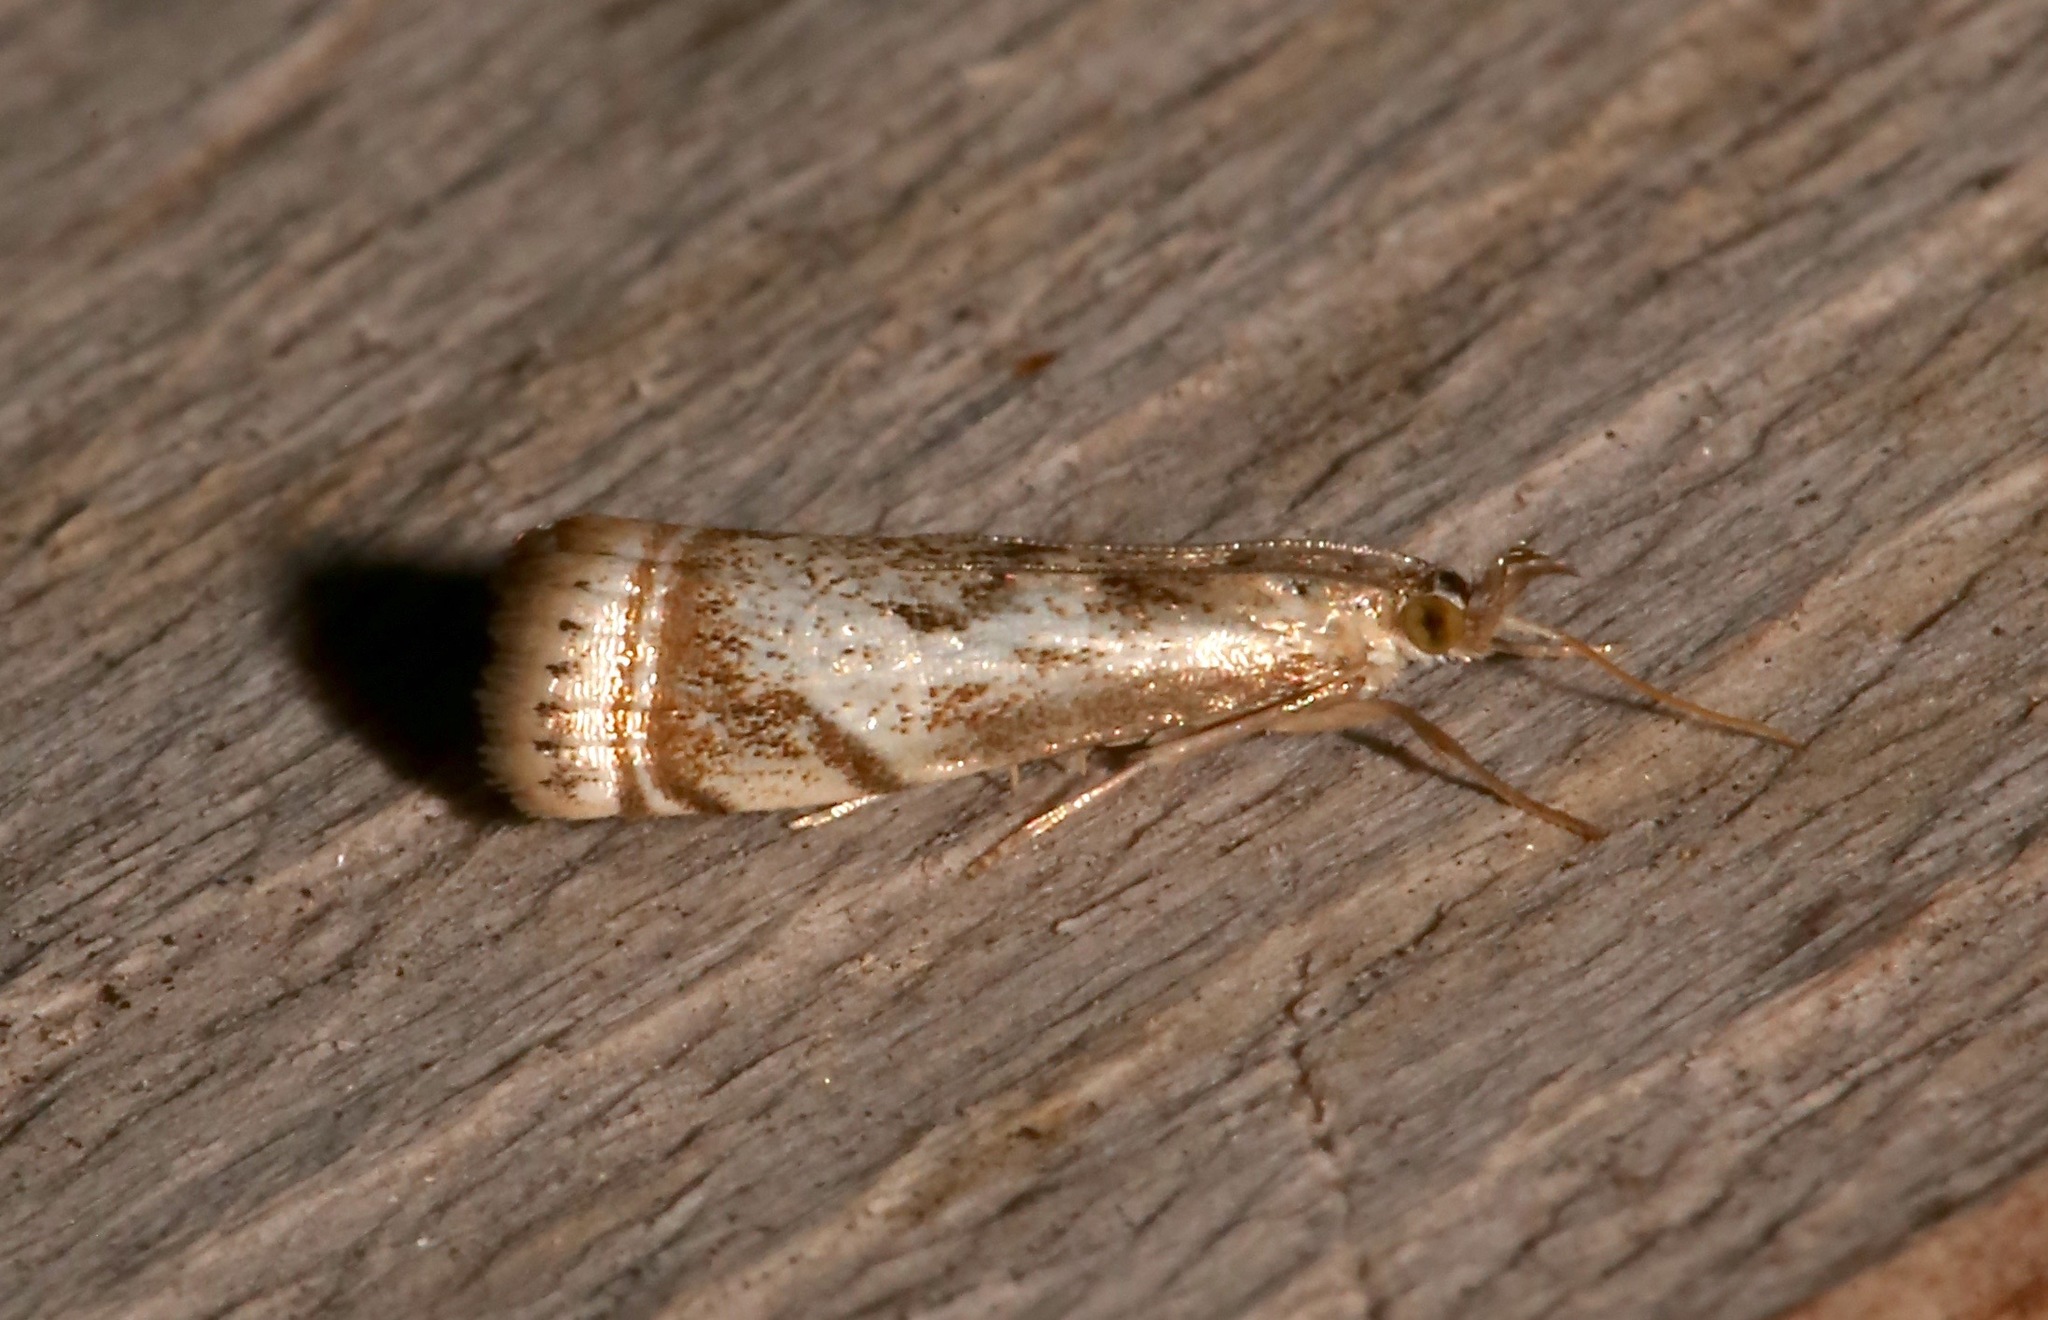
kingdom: Animalia
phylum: Arthropoda
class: Insecta
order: Lepidoptera
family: Crambidae
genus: Microcrambus
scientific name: Microcrambus elegans
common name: Elegant grass-veneer
